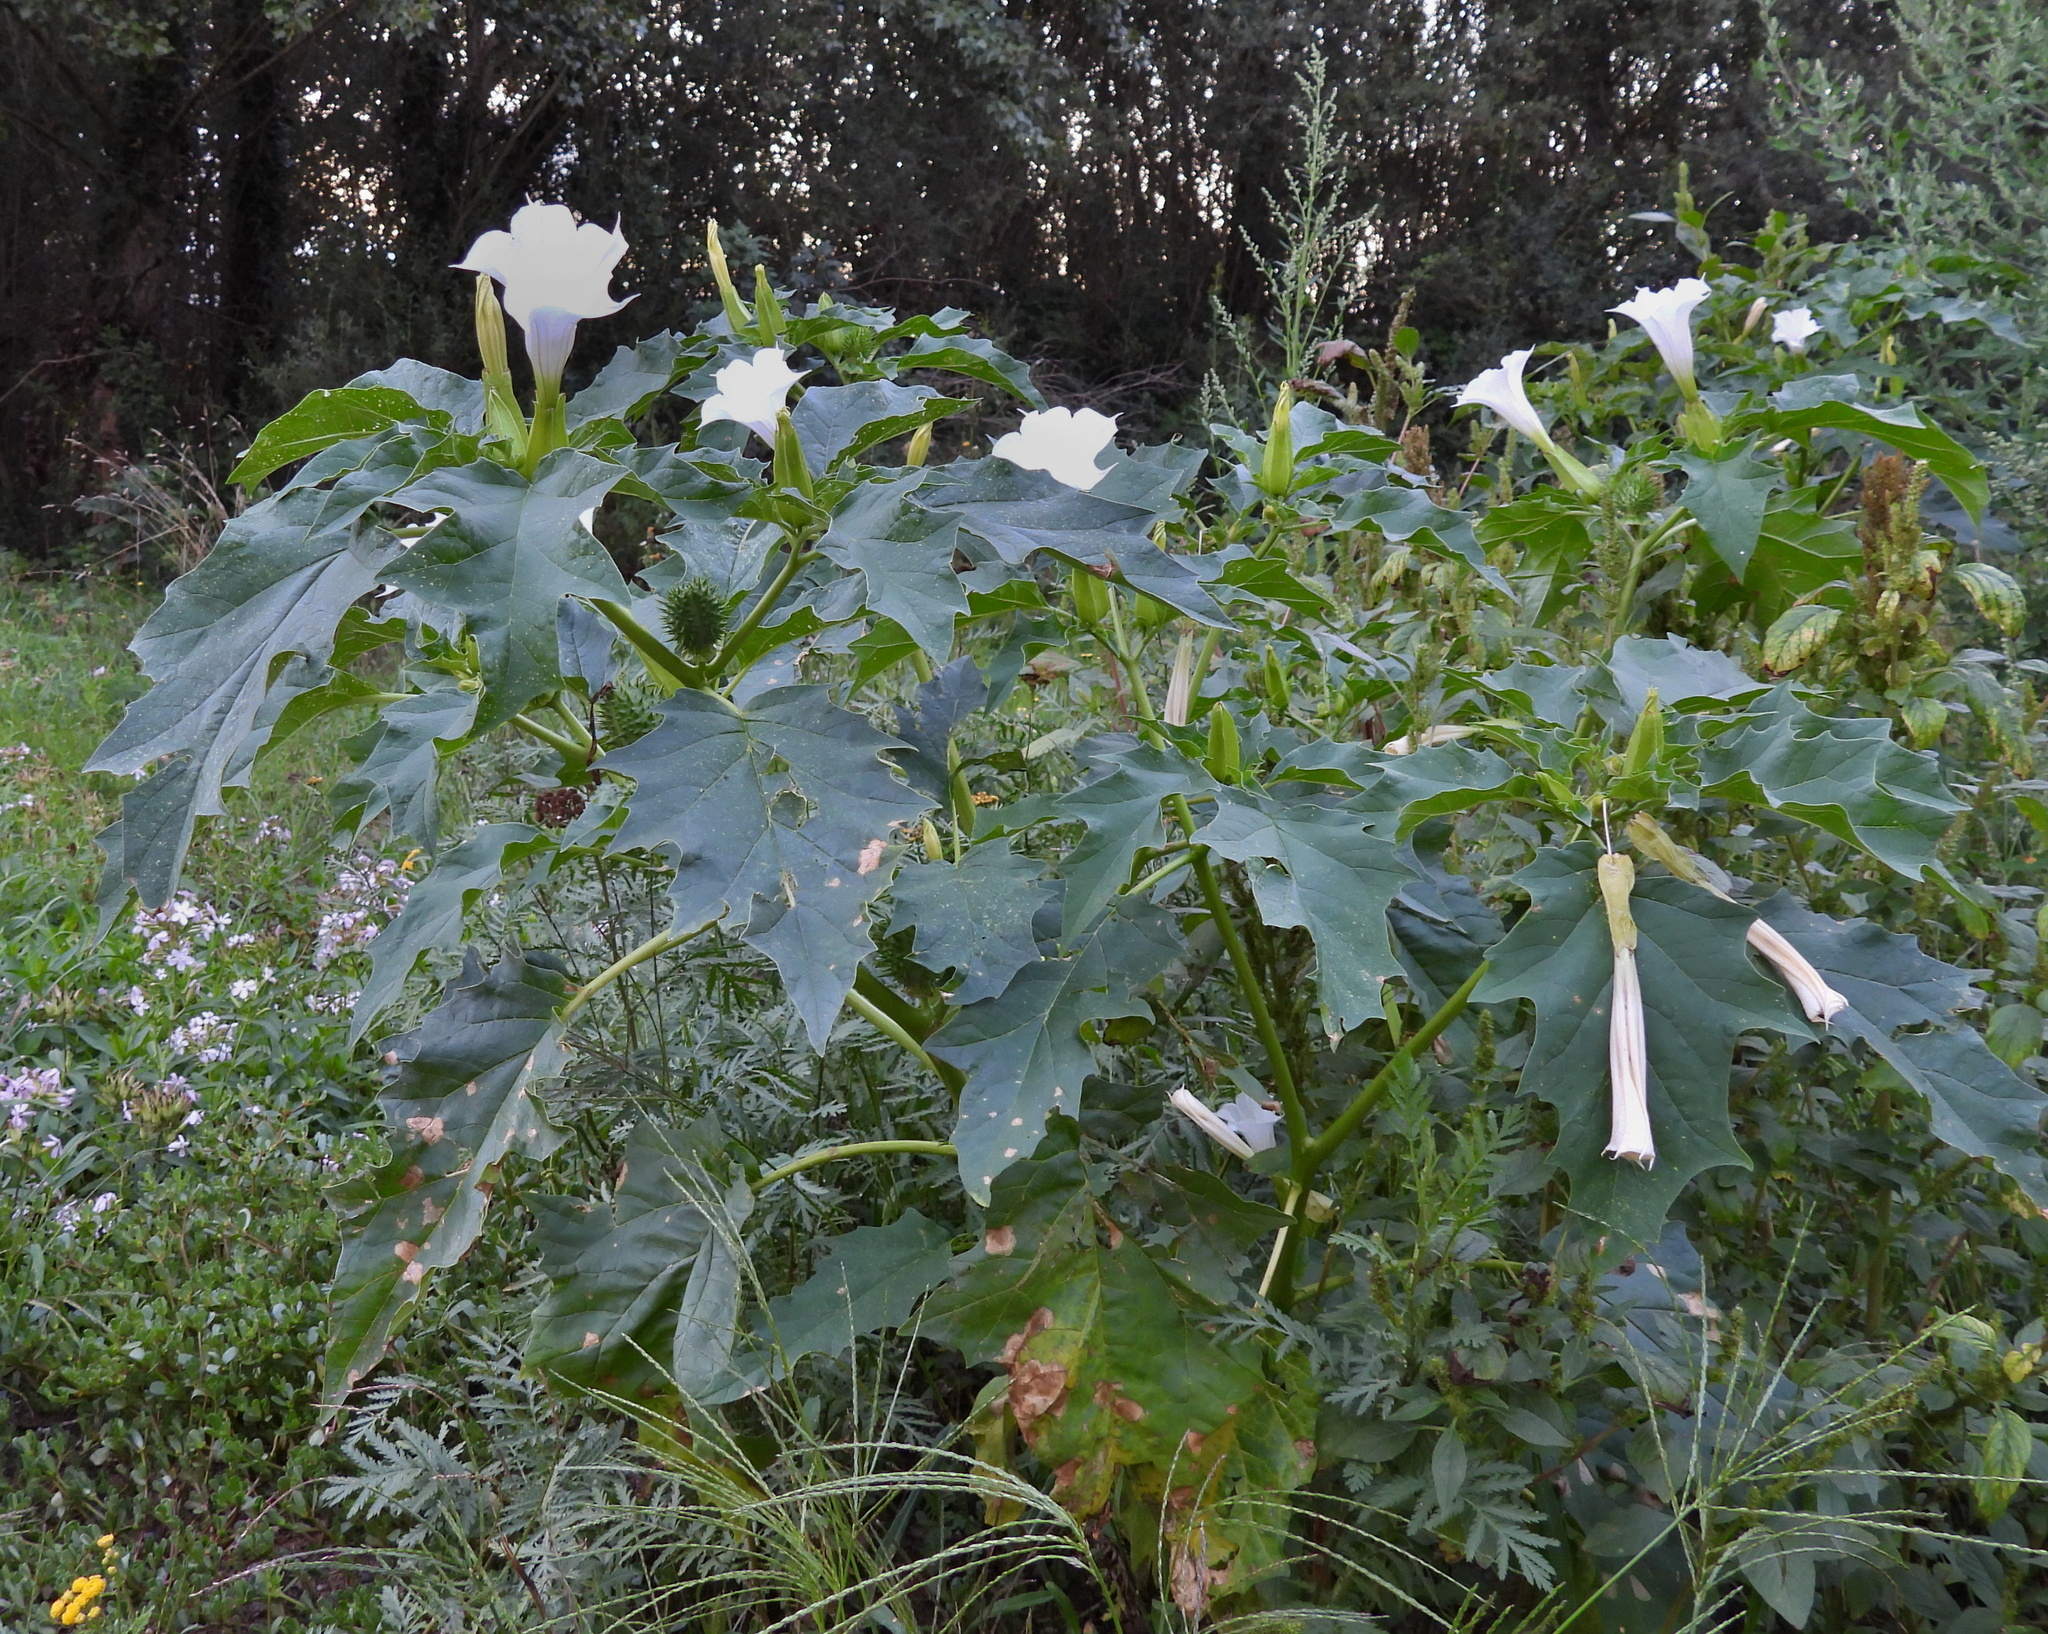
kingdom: Plantae
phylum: Tracheophyta
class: Magnoliopsida
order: Solanales
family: Solanaceae
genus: Datura
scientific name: Datura stramonium
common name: Thorn-apple
